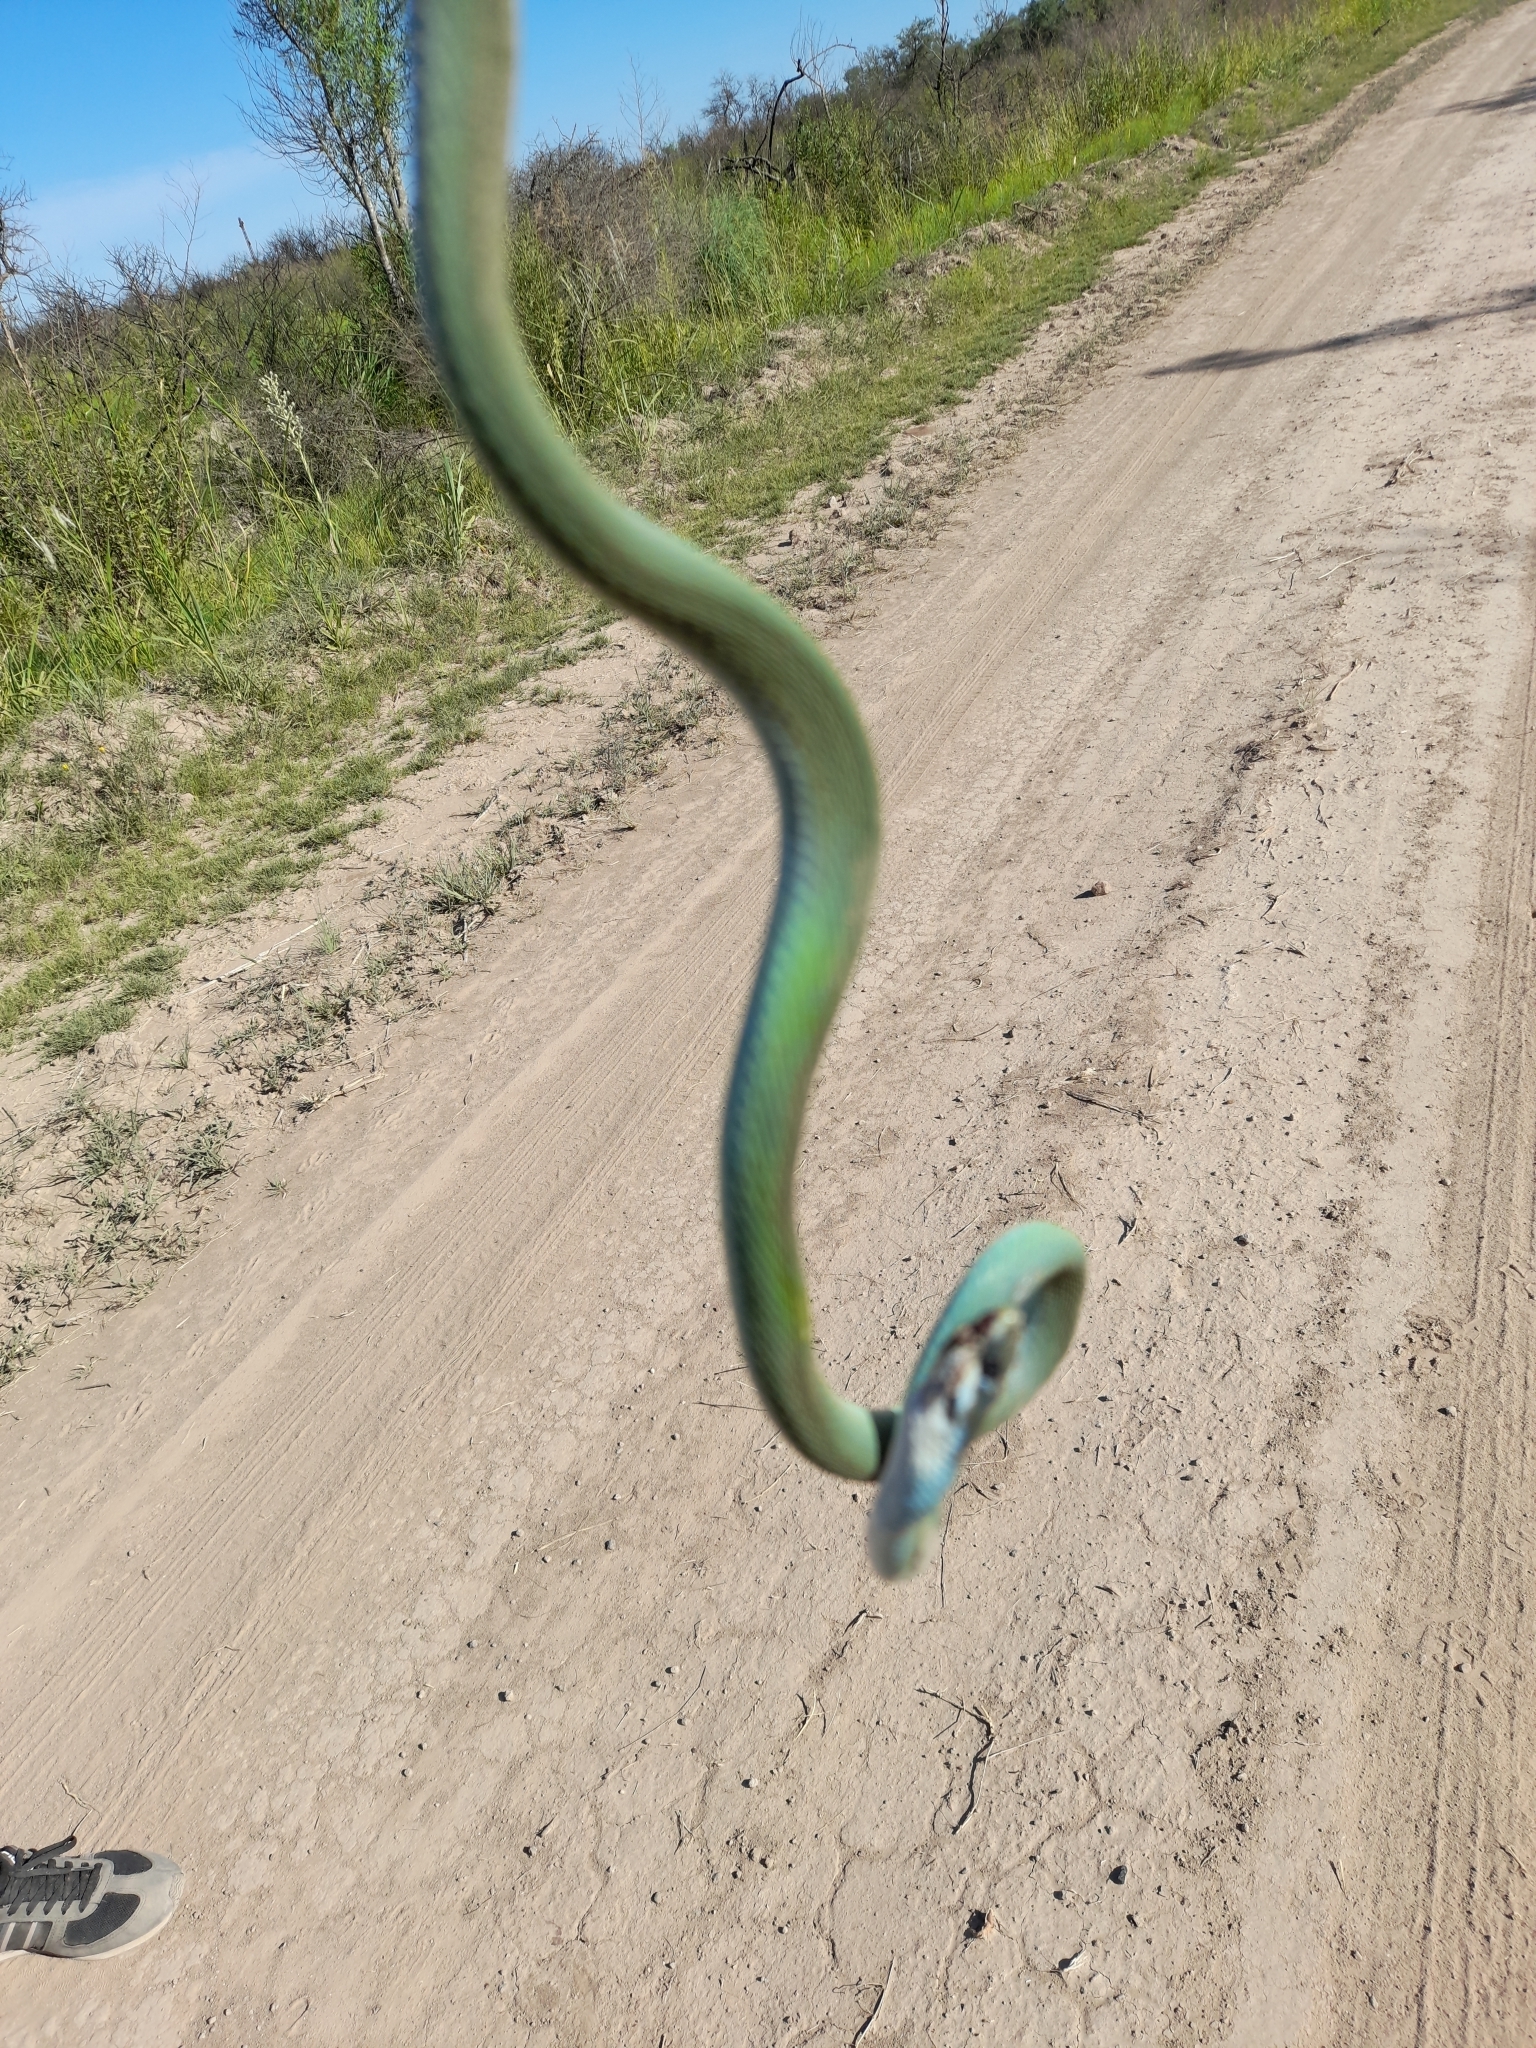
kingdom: Animalia
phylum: Chordata
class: Squamata
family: Colubridae
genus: Philodryas
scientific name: Philodryas aestiva
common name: Brazilian green racer
